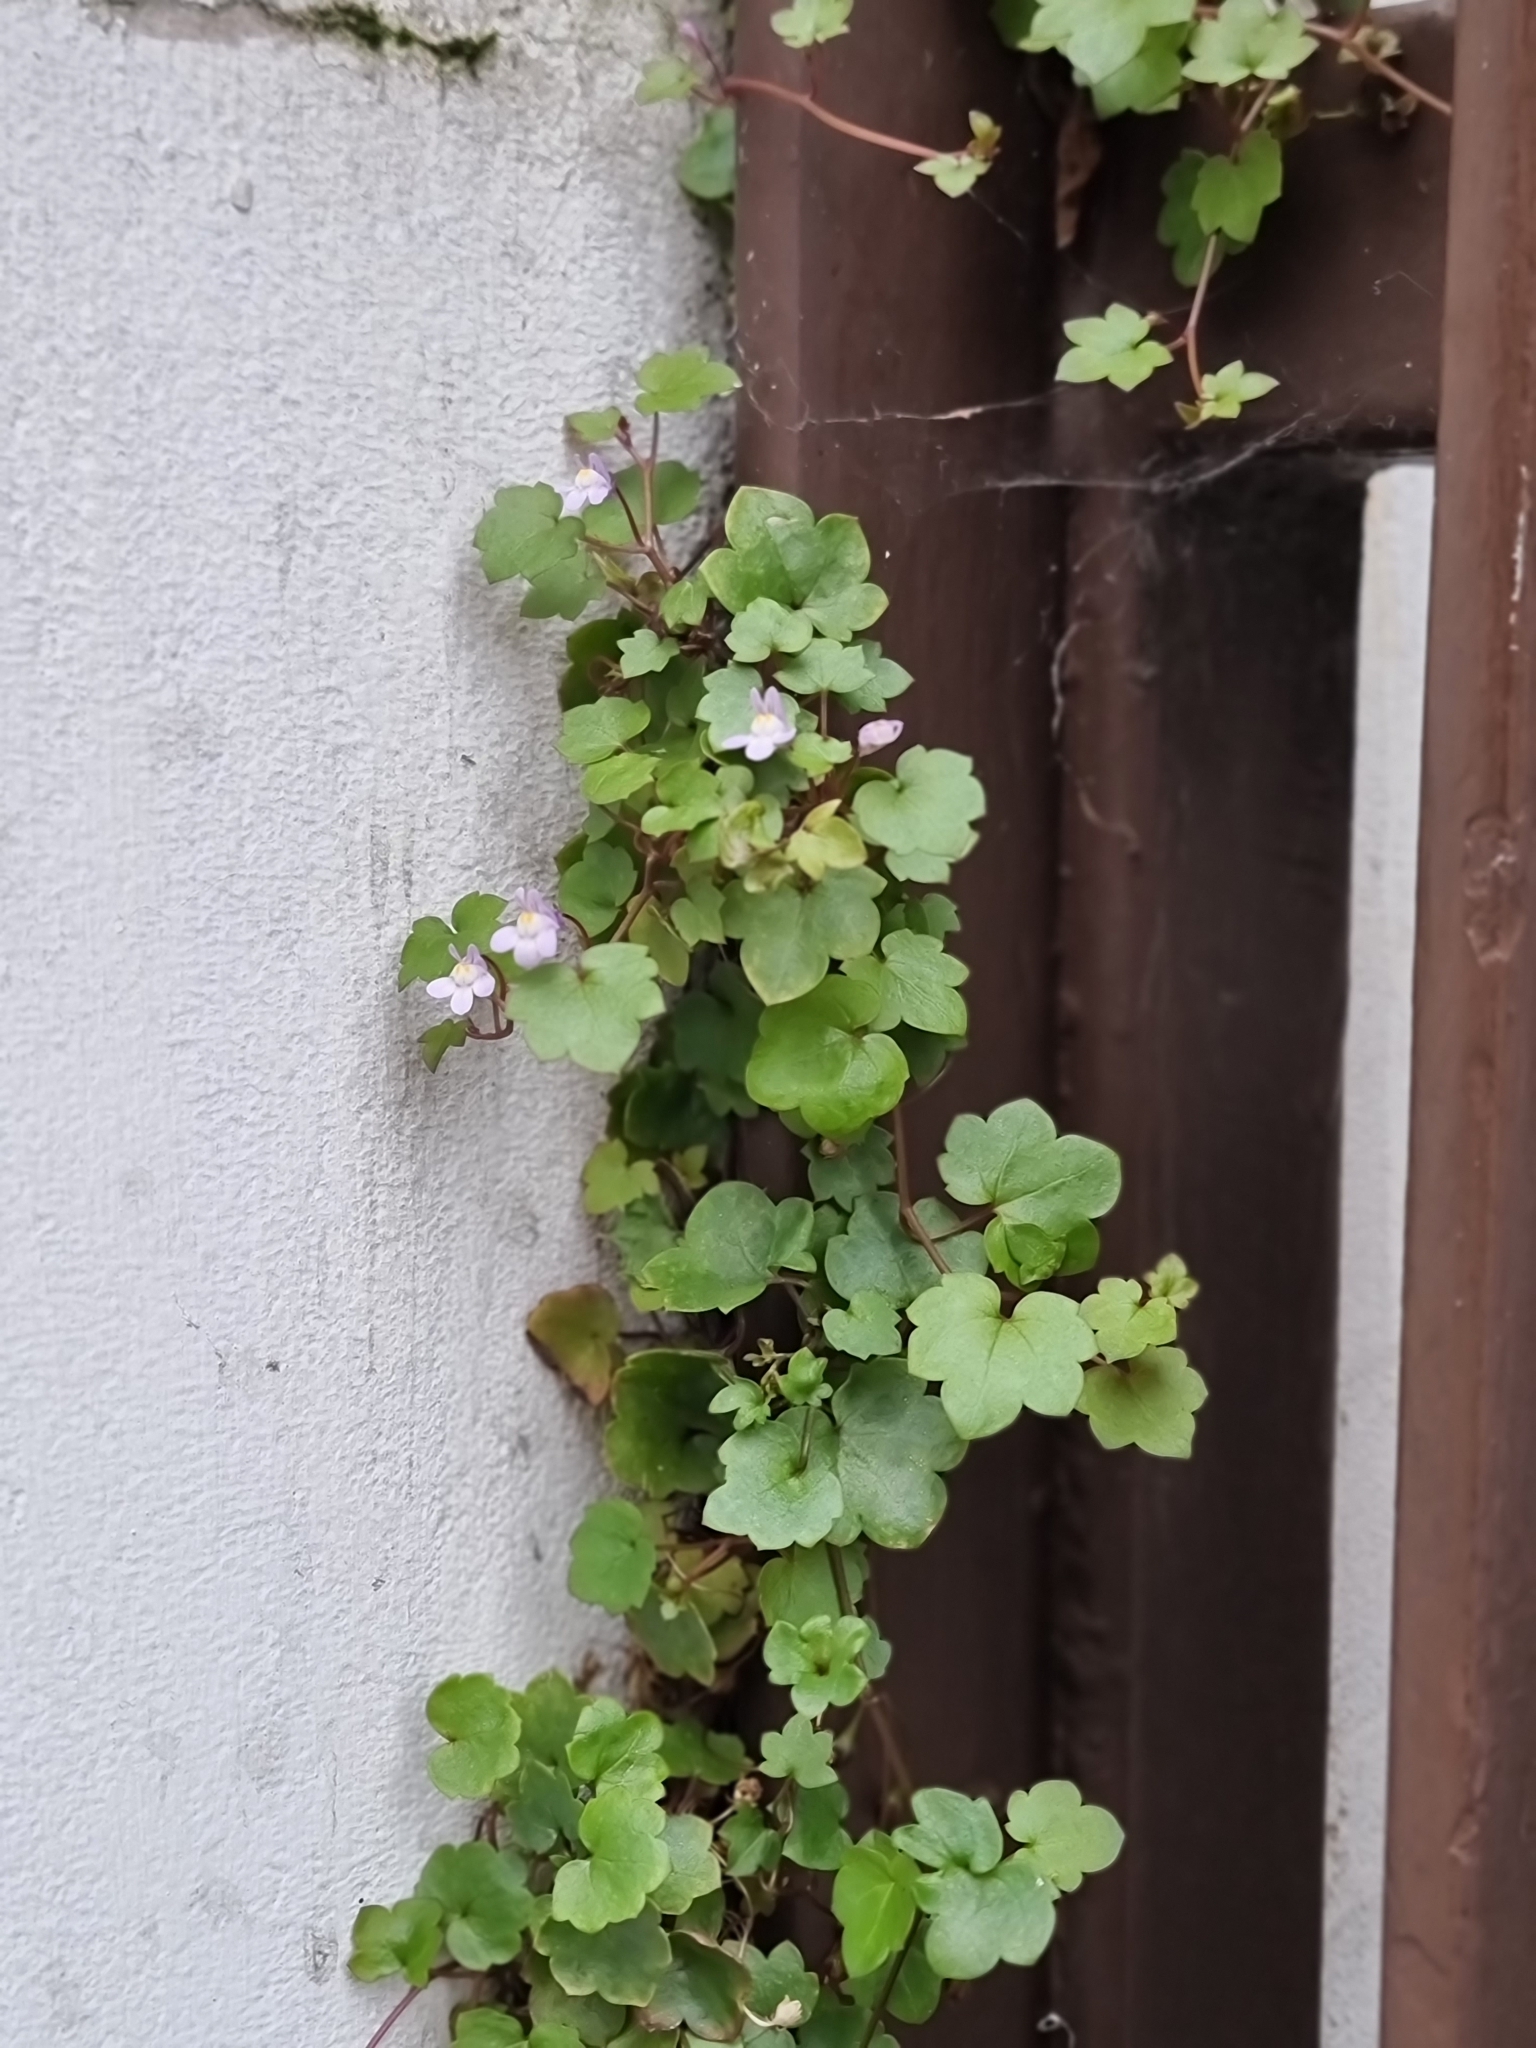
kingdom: Plantae
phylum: Tracheophyta
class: Magnoliopsida
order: Lamiales
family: Plantaginaceae
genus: Cymbalaria
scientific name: Cymbalaria muralis
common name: Ivy-leaved toadflax
